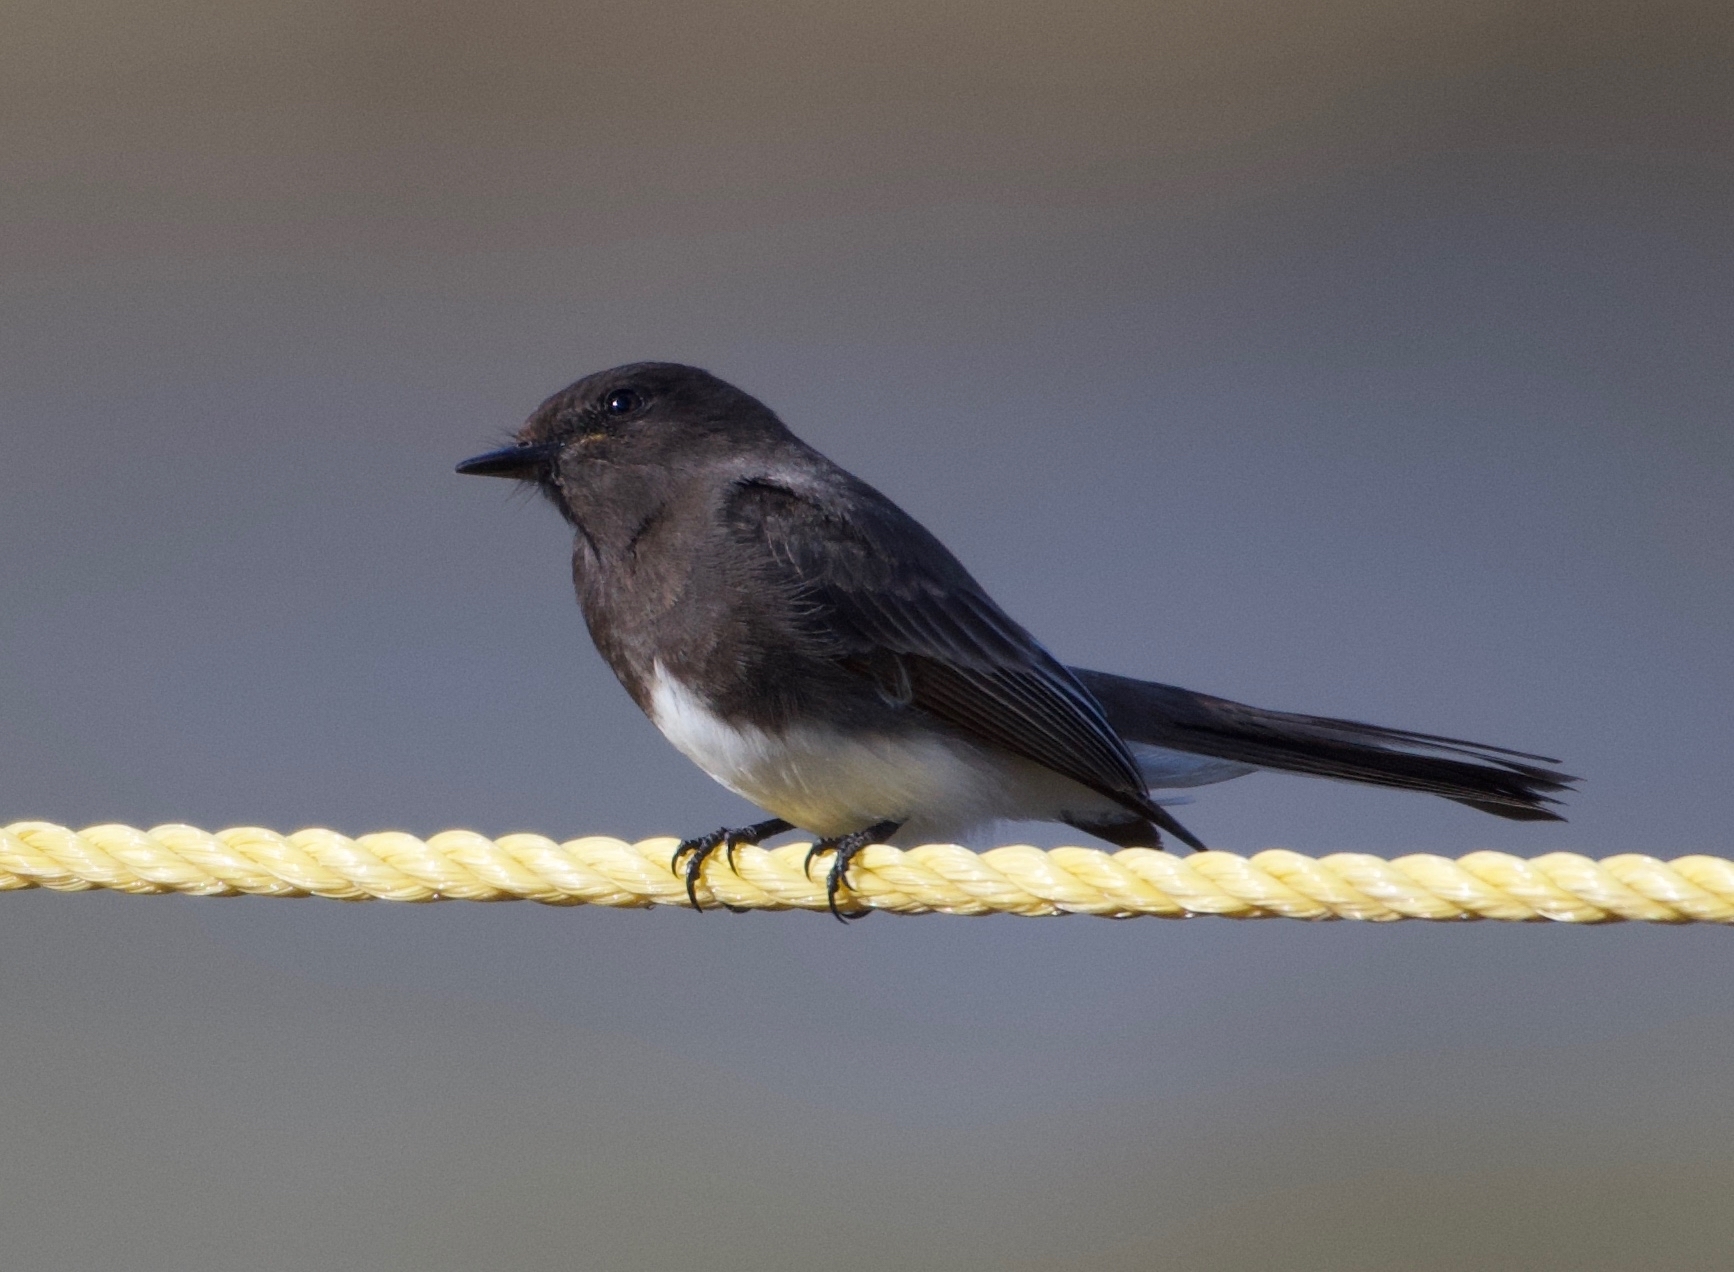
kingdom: Animalia
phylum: Chordata
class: Aves
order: Passeriformes
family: Tyrannidae
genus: Sayornis
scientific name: Sayornis nigricans
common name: Black phoebe
